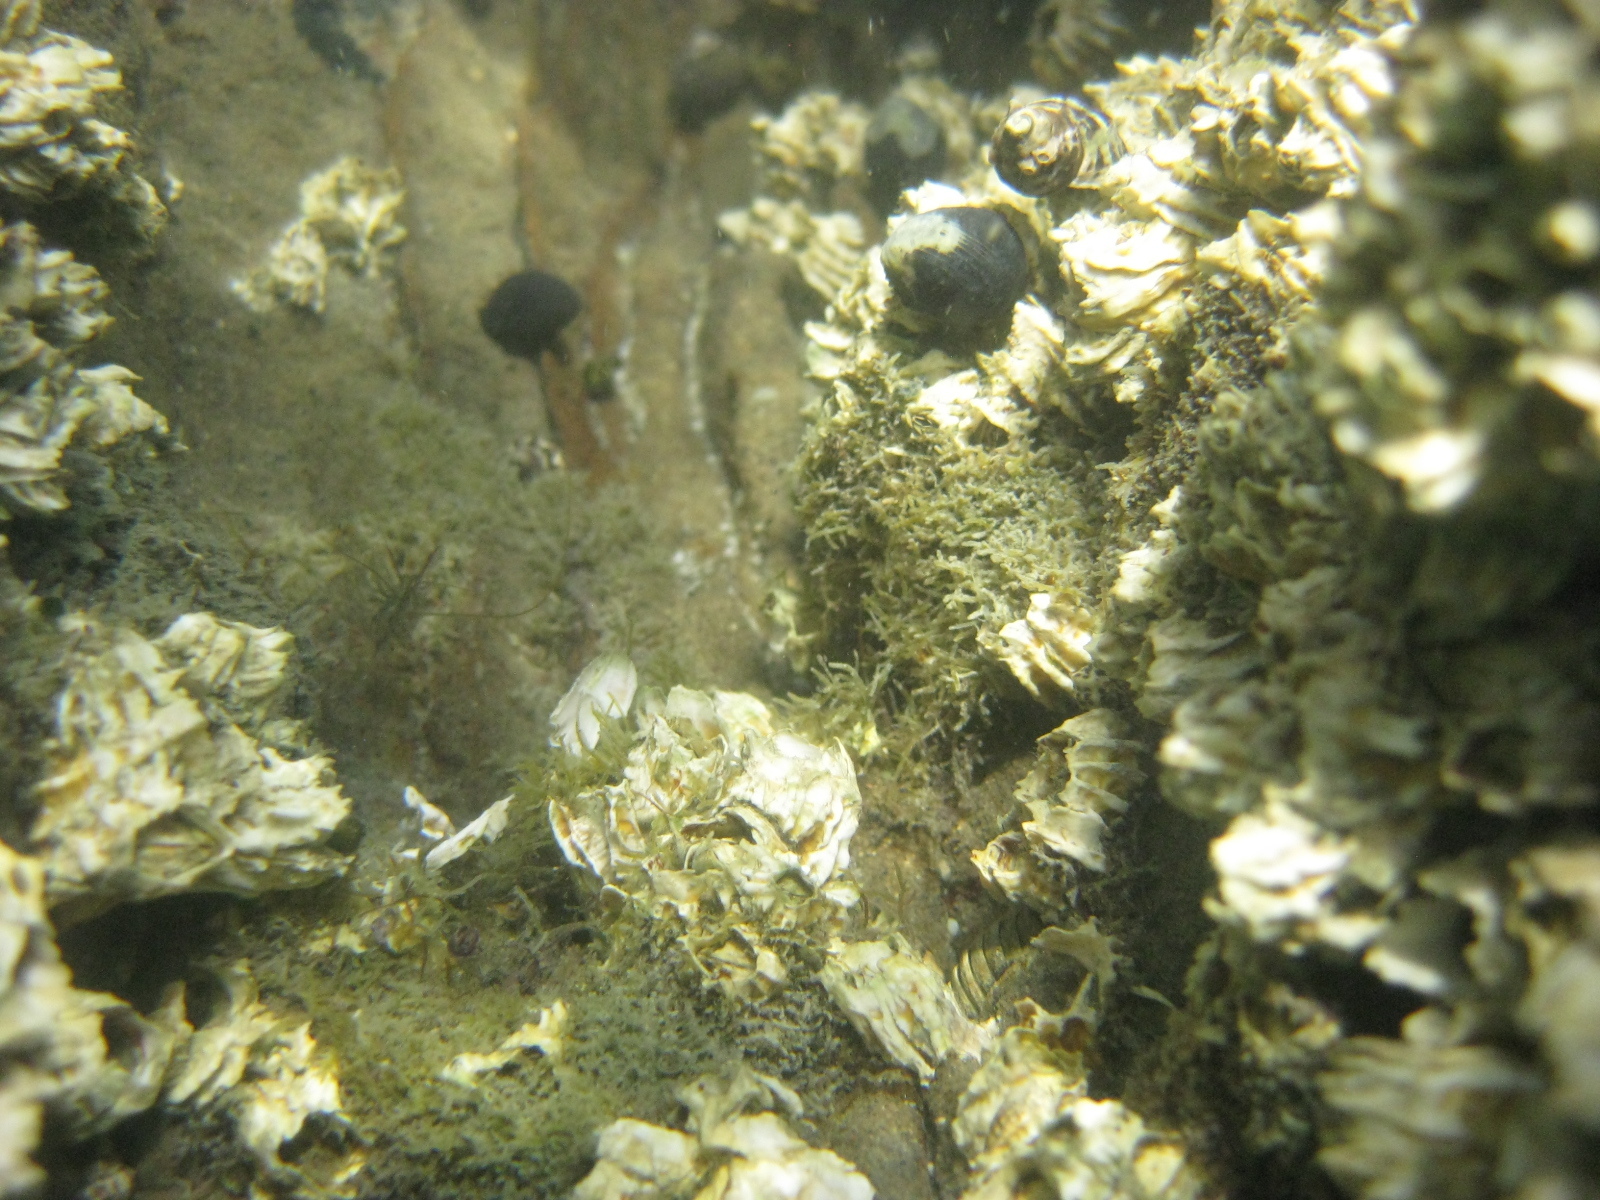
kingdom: Animalia
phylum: Arthropoda
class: Maxillopoda
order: Sessilia
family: Tetraclitidae
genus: Epopella
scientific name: Epopella plicata
